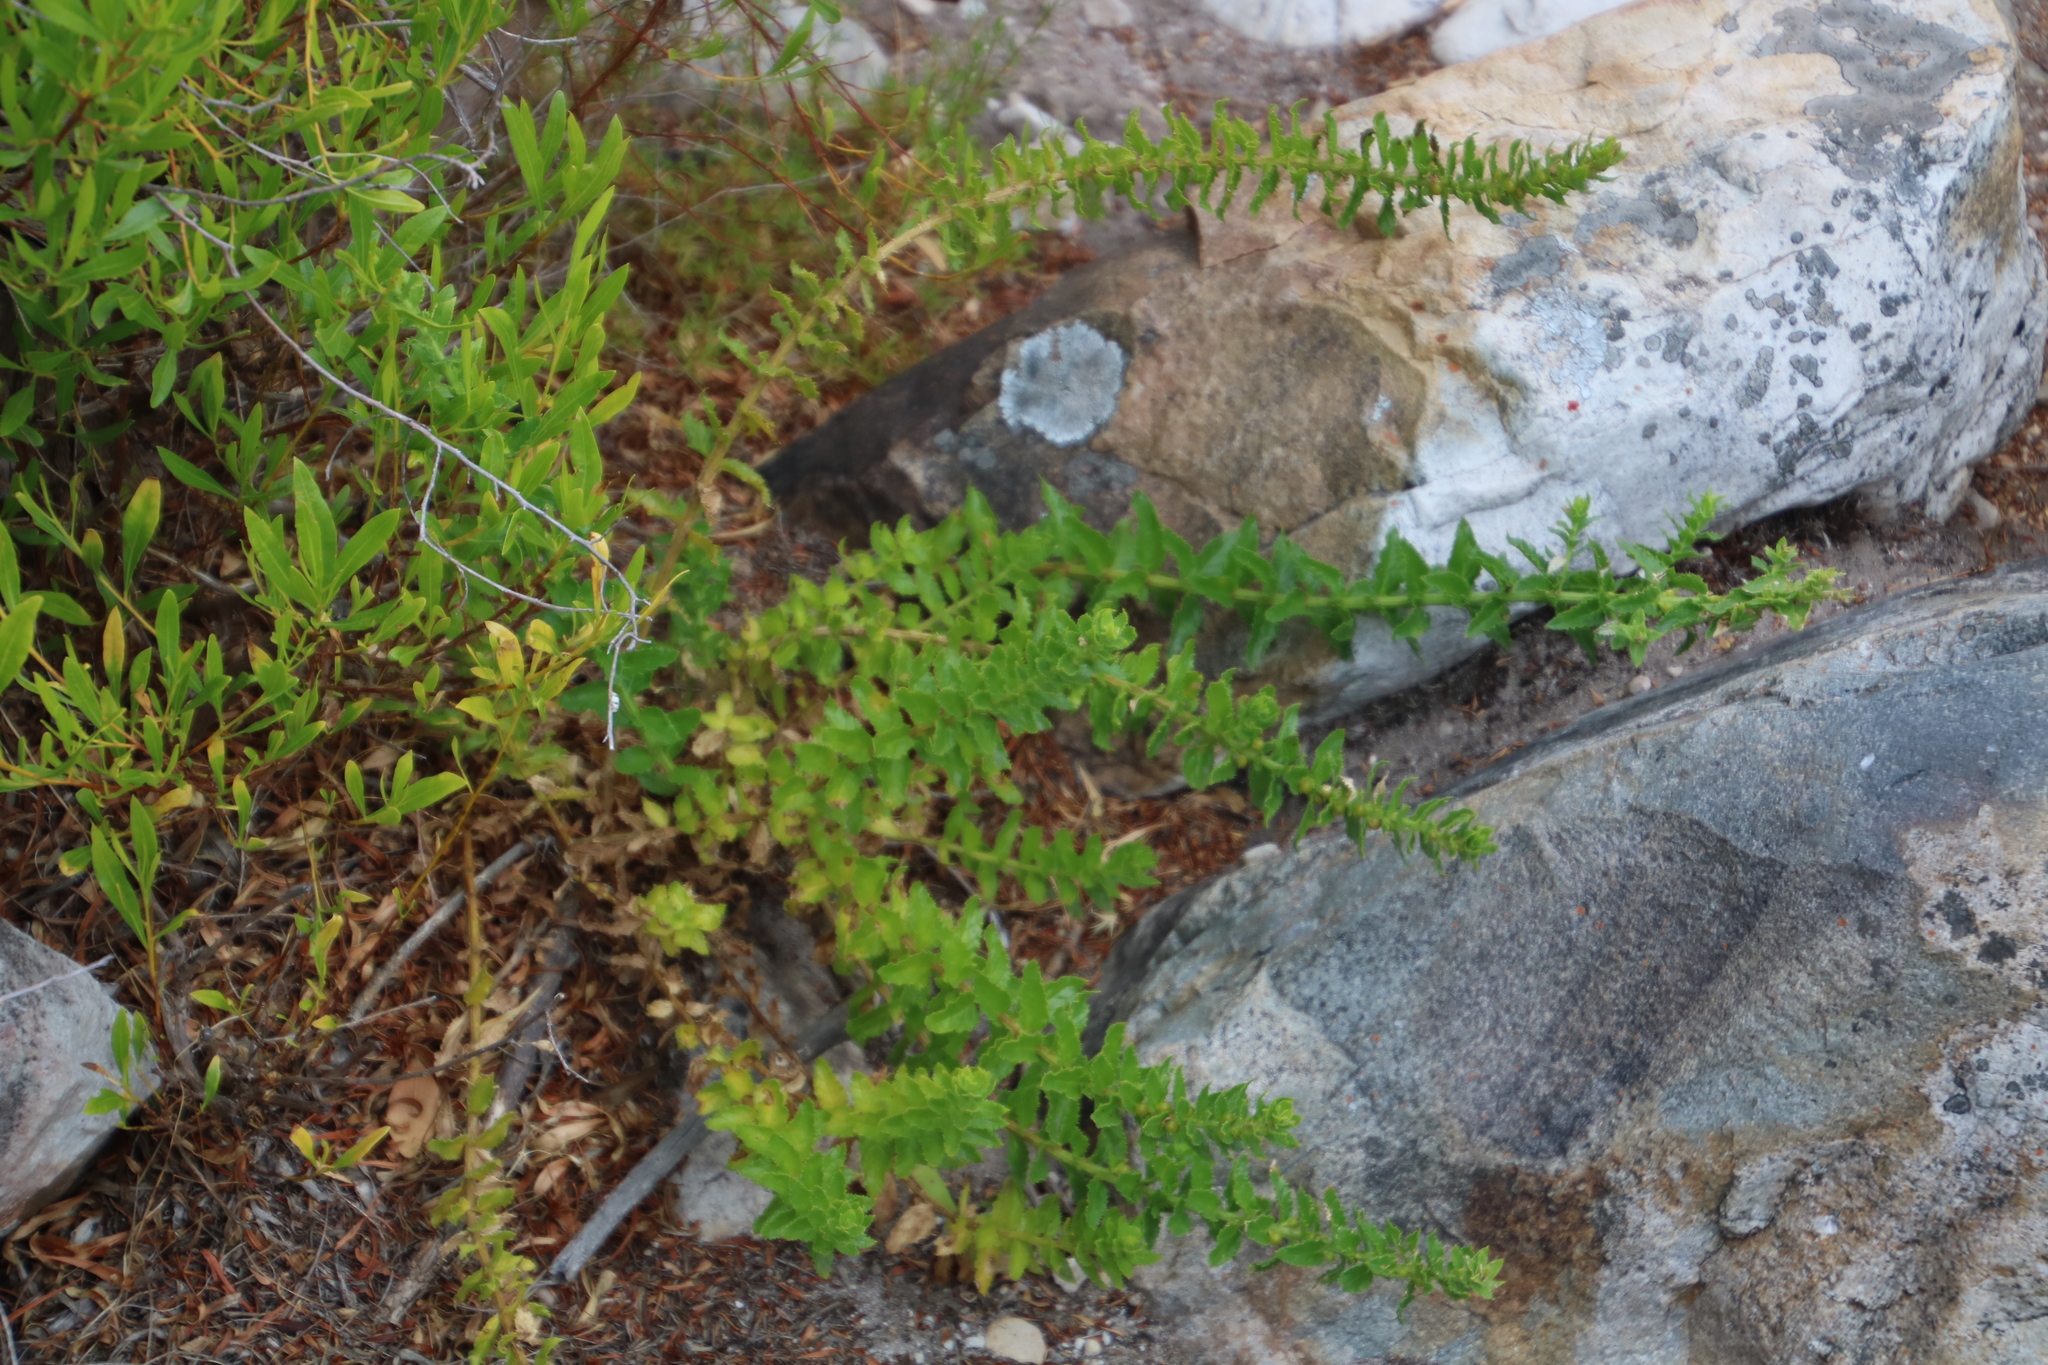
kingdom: Plantae
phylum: Tracheophyta
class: Magnoliopsida
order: Lamiales
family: Scrophulariaceae
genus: Oftia
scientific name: Oftia africana
